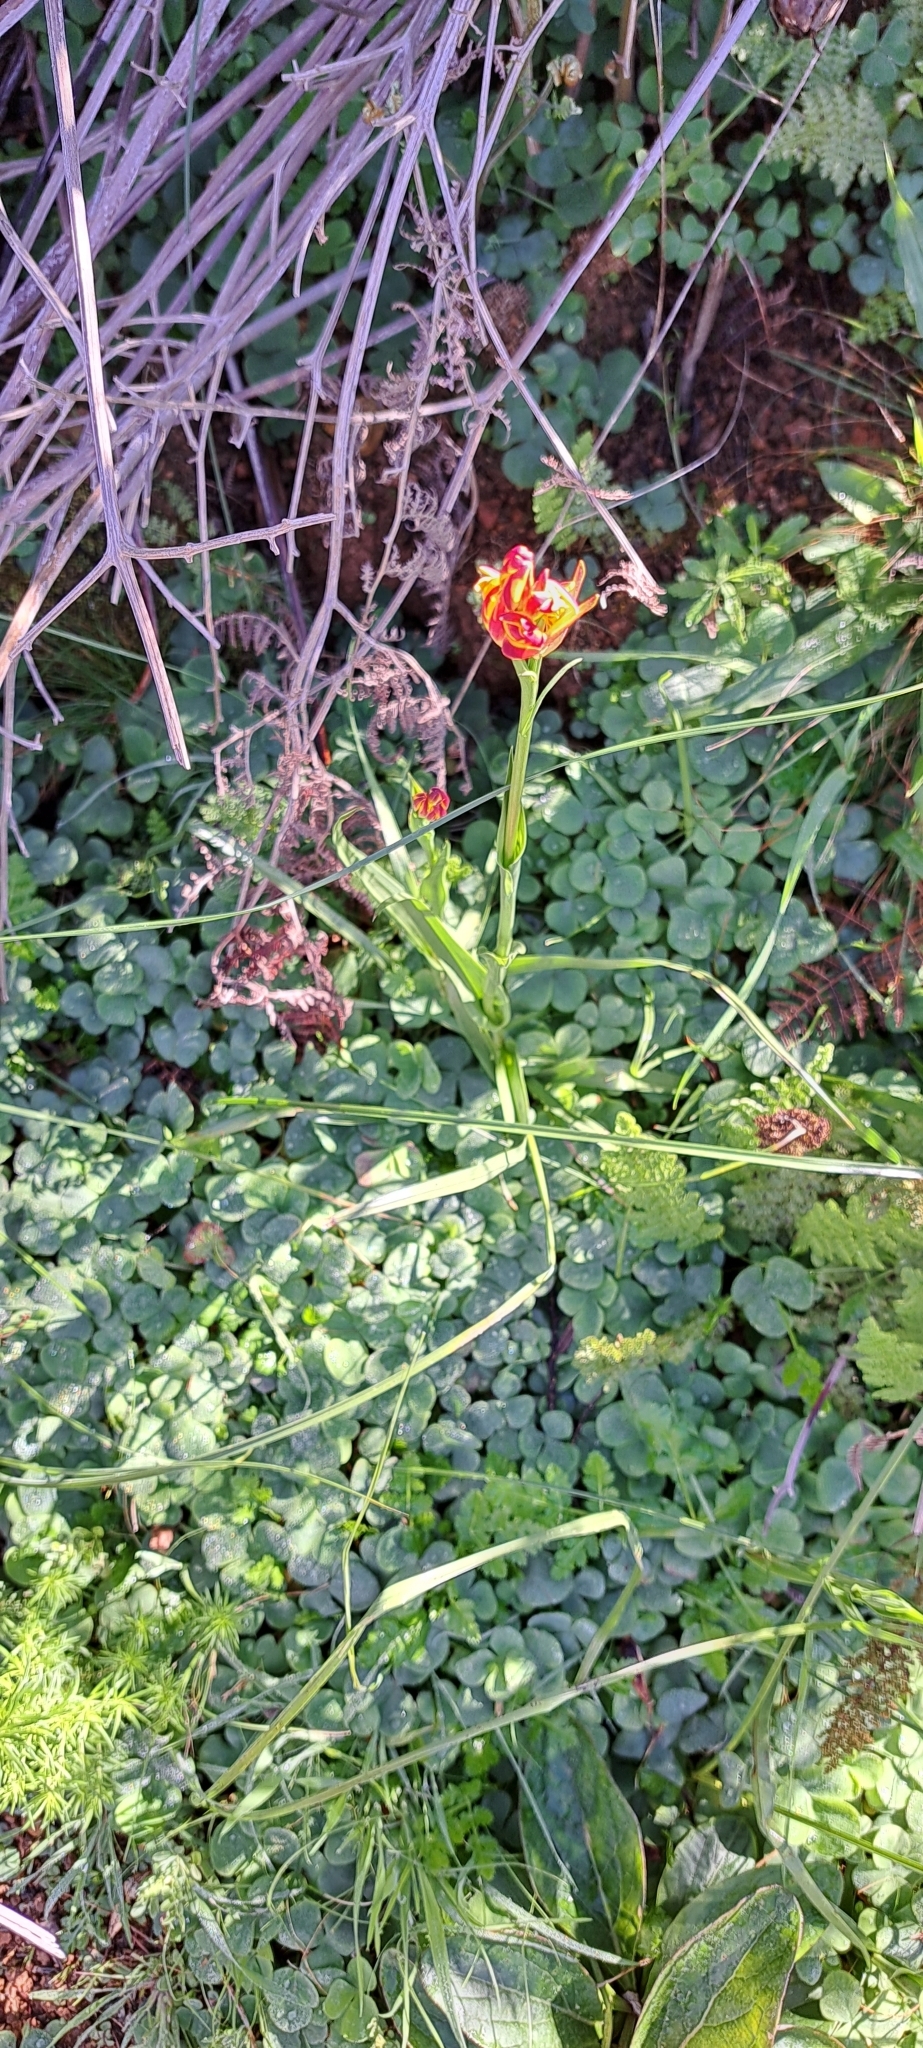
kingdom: Plantae
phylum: Tracheophyta
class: Liliopsida
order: Liliales
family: Colchicaceae
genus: Baeometra
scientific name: Baeometra uniflora
